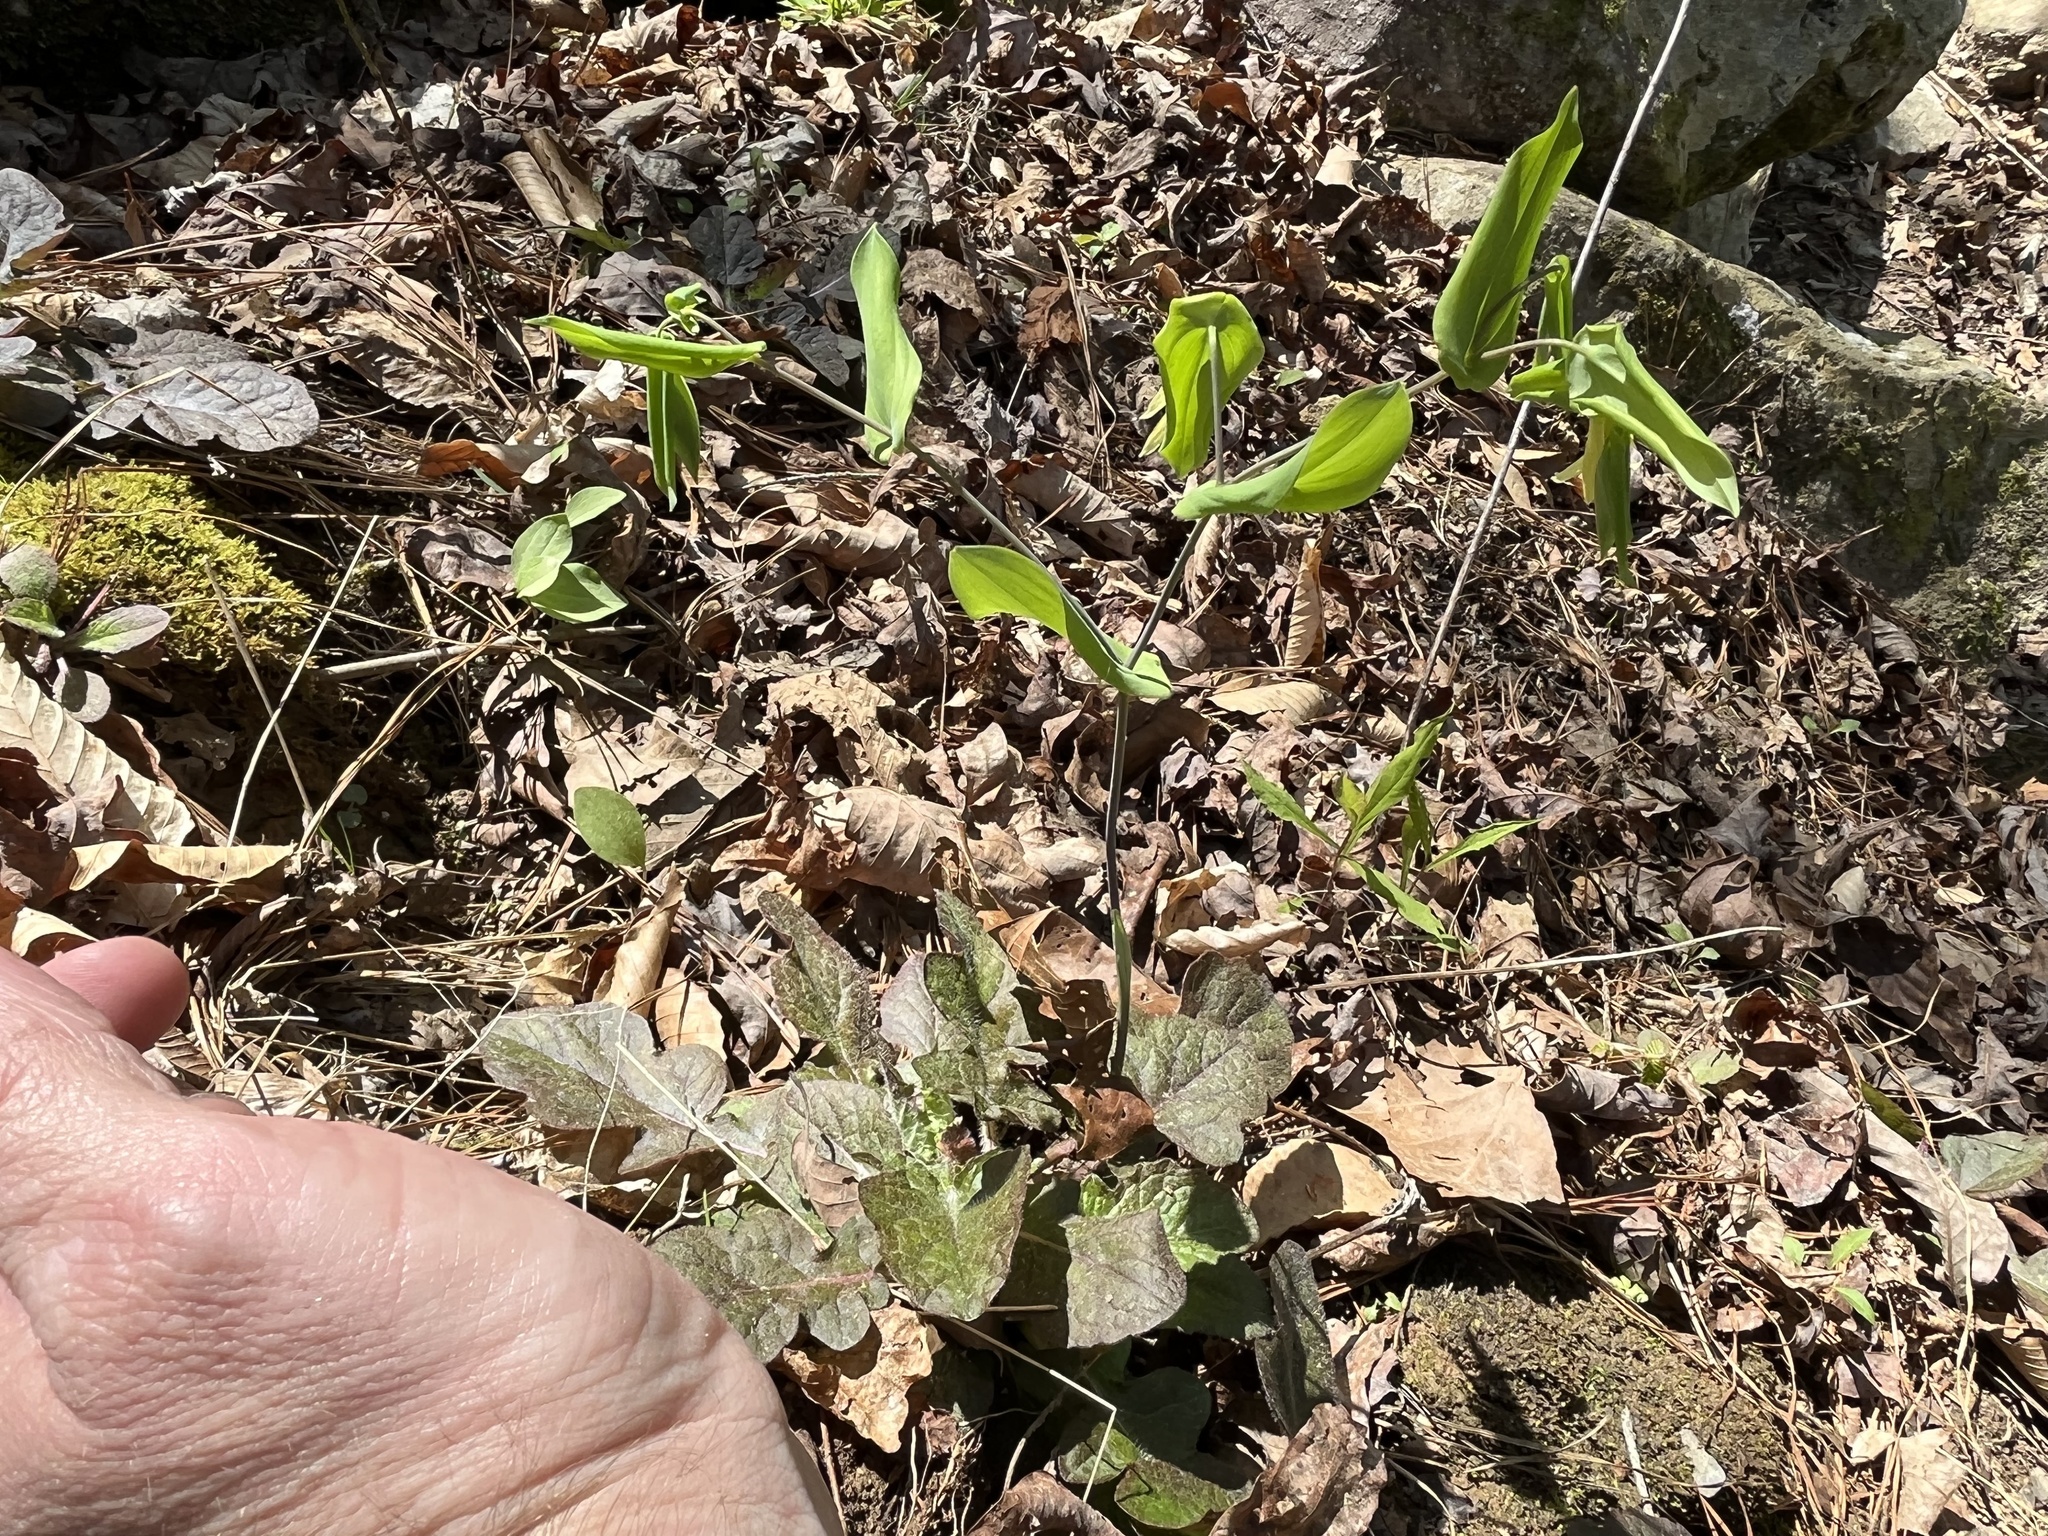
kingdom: Plantae
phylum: Tracheophyta
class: Liliopsida
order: Liliales
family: Colchicaceae
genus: Uvularia
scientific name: Uvularia perfoliata
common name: Perfoliate bellwort
